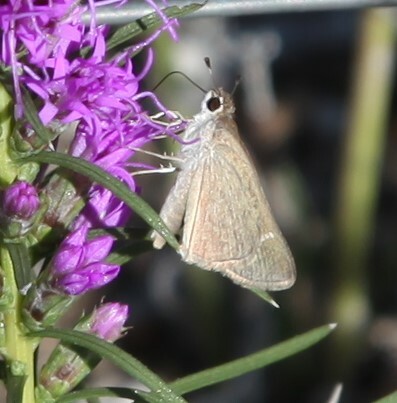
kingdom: Animalia
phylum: Arthropoda
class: Insecta
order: Lepidoptera
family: Hesperiidae
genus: Lerodea
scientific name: Lerodea eufala
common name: Eufala skipper
